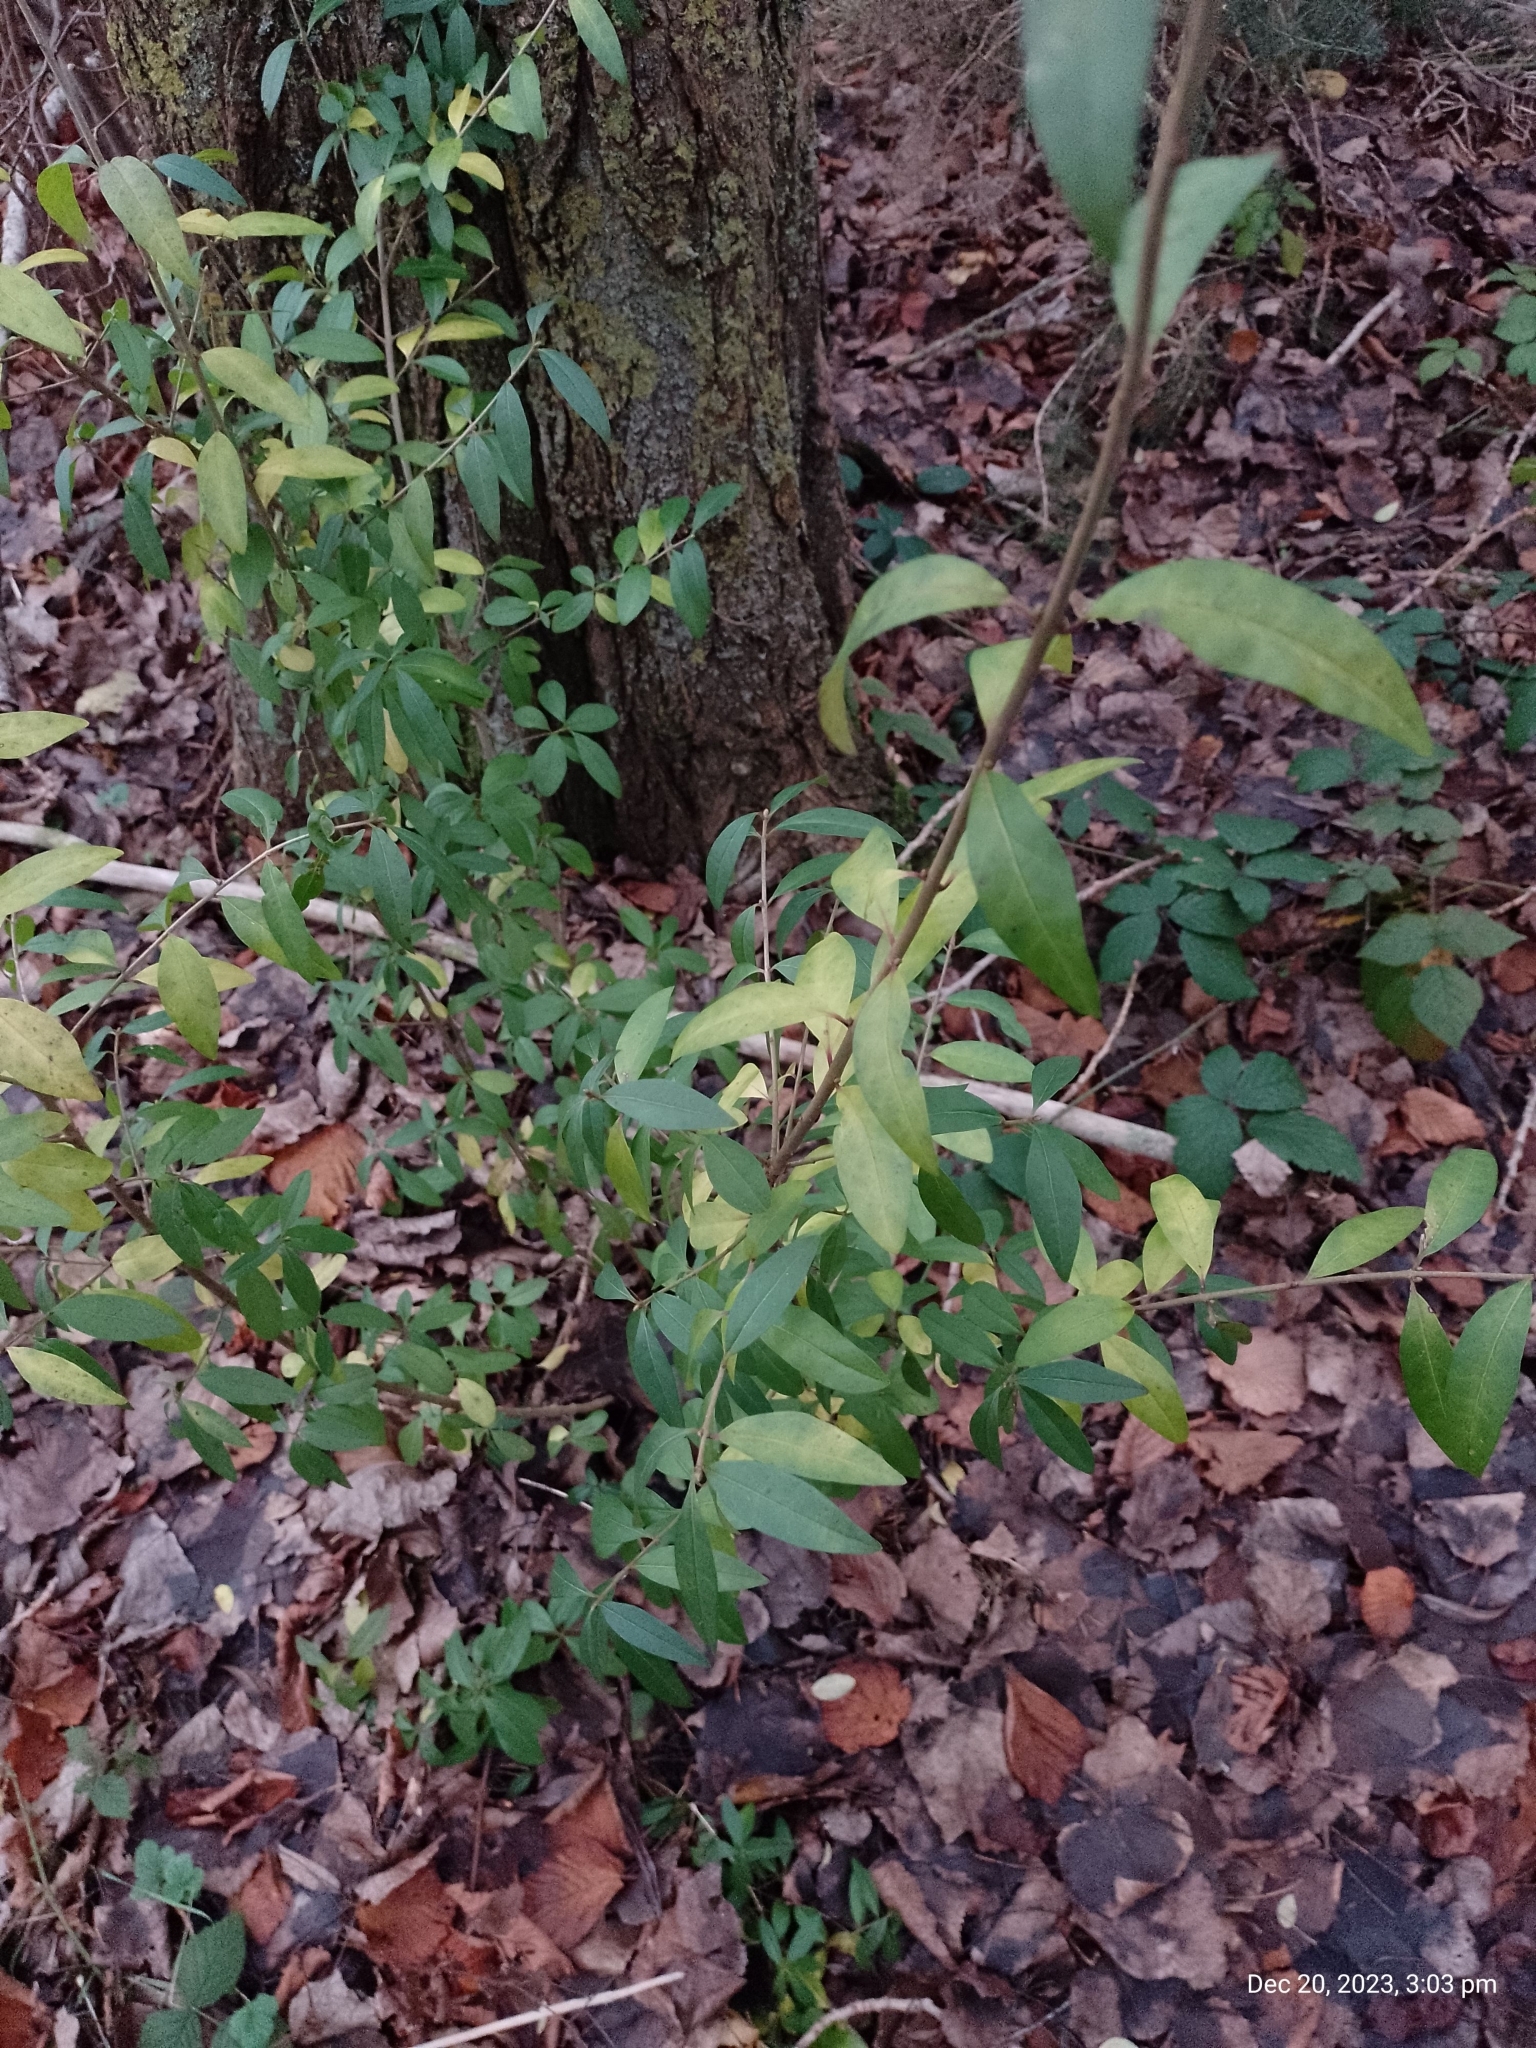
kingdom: Plantae
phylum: Tracheophyta
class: Magnoliopsida
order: Lamiales
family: Oleaceae
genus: Ligustrum
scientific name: Ligustrum vulgare
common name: Wild privet
